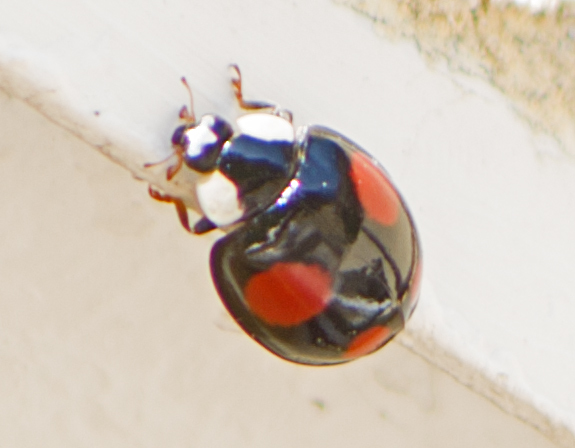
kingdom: Animalia
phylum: Arthropoda
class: Insecta
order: Coleoptera
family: Coccinellidae
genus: Harmonia
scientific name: Harmonia axyridis
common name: Harlequin ladybird
